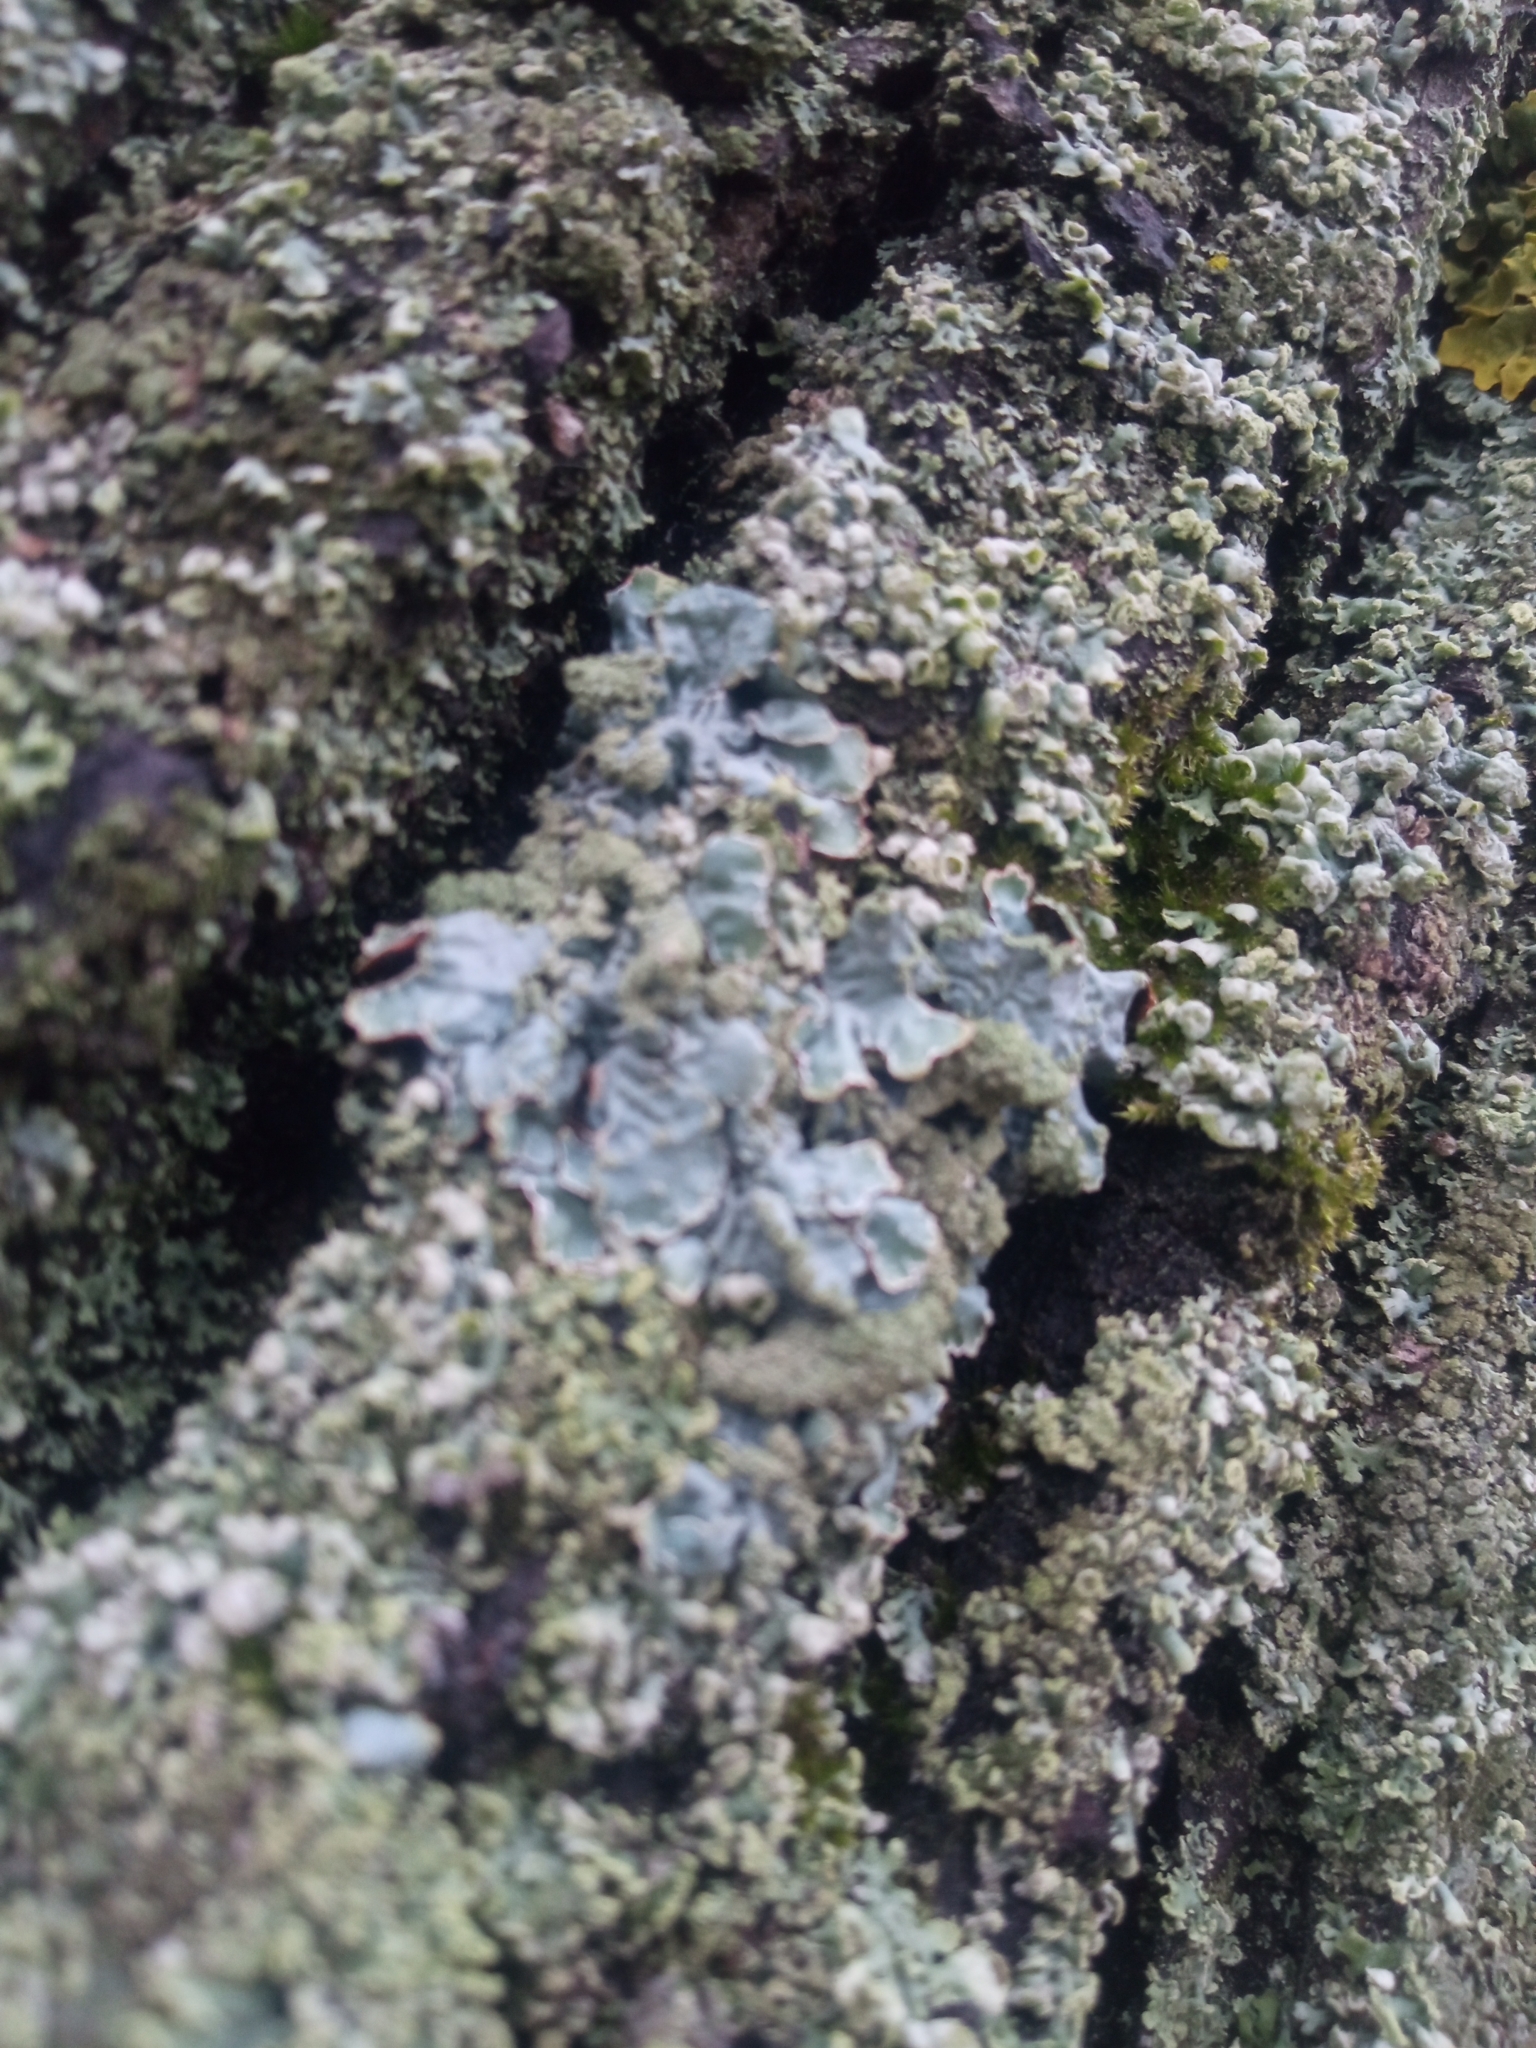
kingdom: Fungi
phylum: Ascomycota
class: Lecanoromycetes
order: Lecanorales
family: Parmeliaceae
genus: Parmelia
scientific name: Parmelia sulcata
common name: Netted shield lichen
